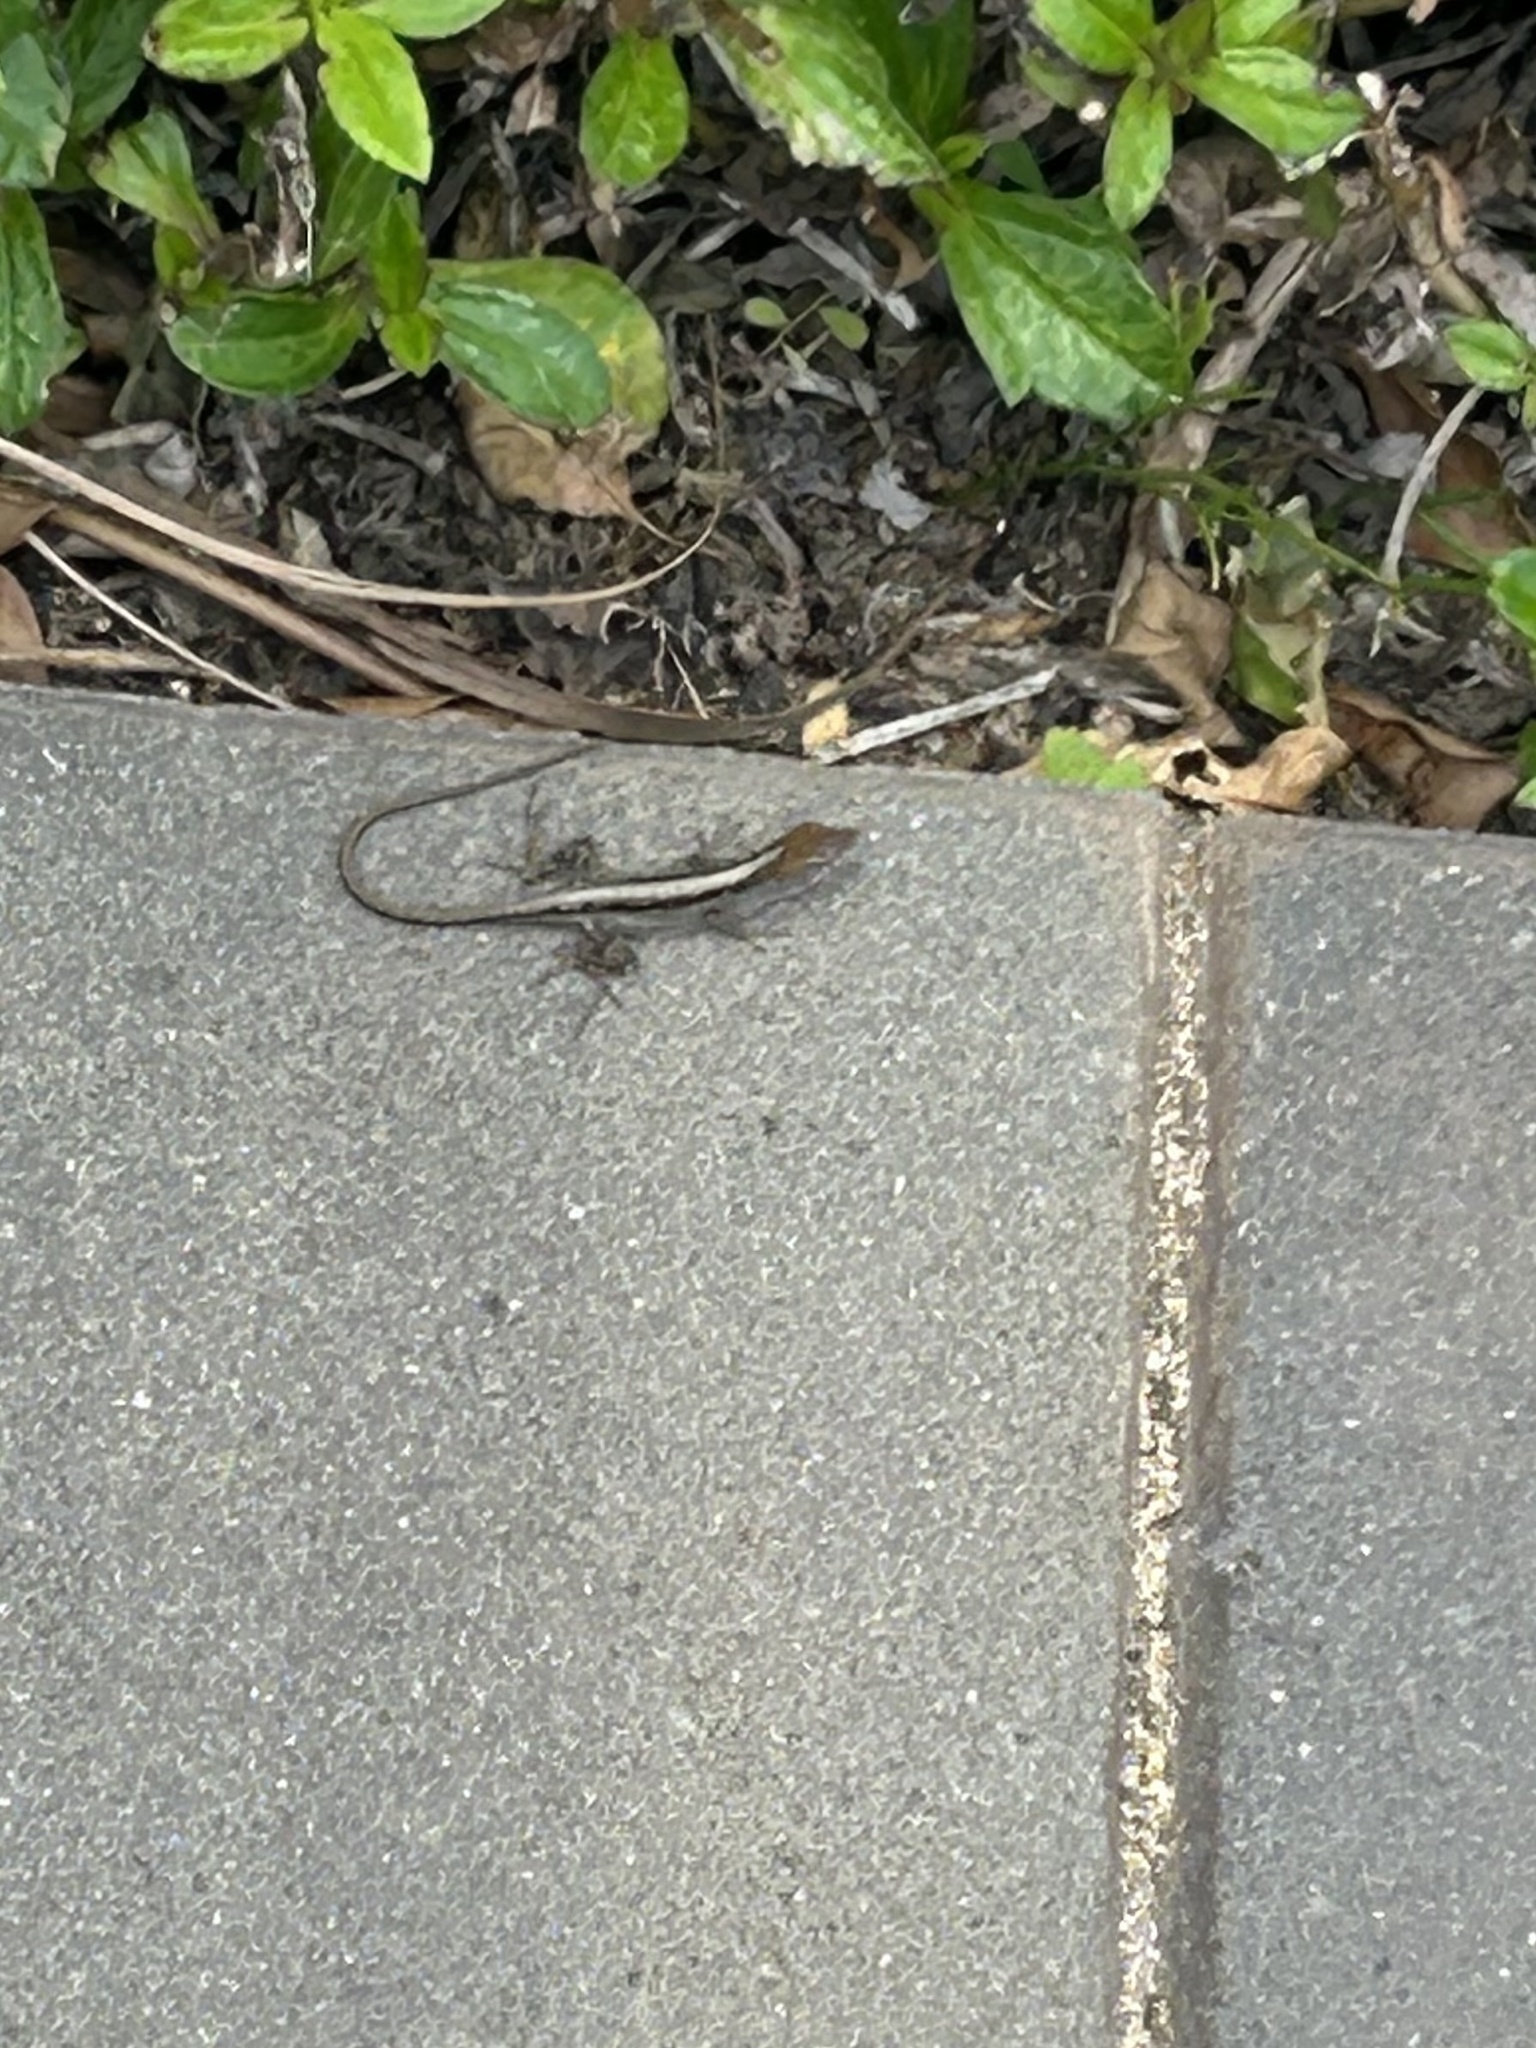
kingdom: Animalia
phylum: Chordata
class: Squamata
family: Dactyloidae
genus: Anolis
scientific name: Anolis sagrei
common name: Brown anole
